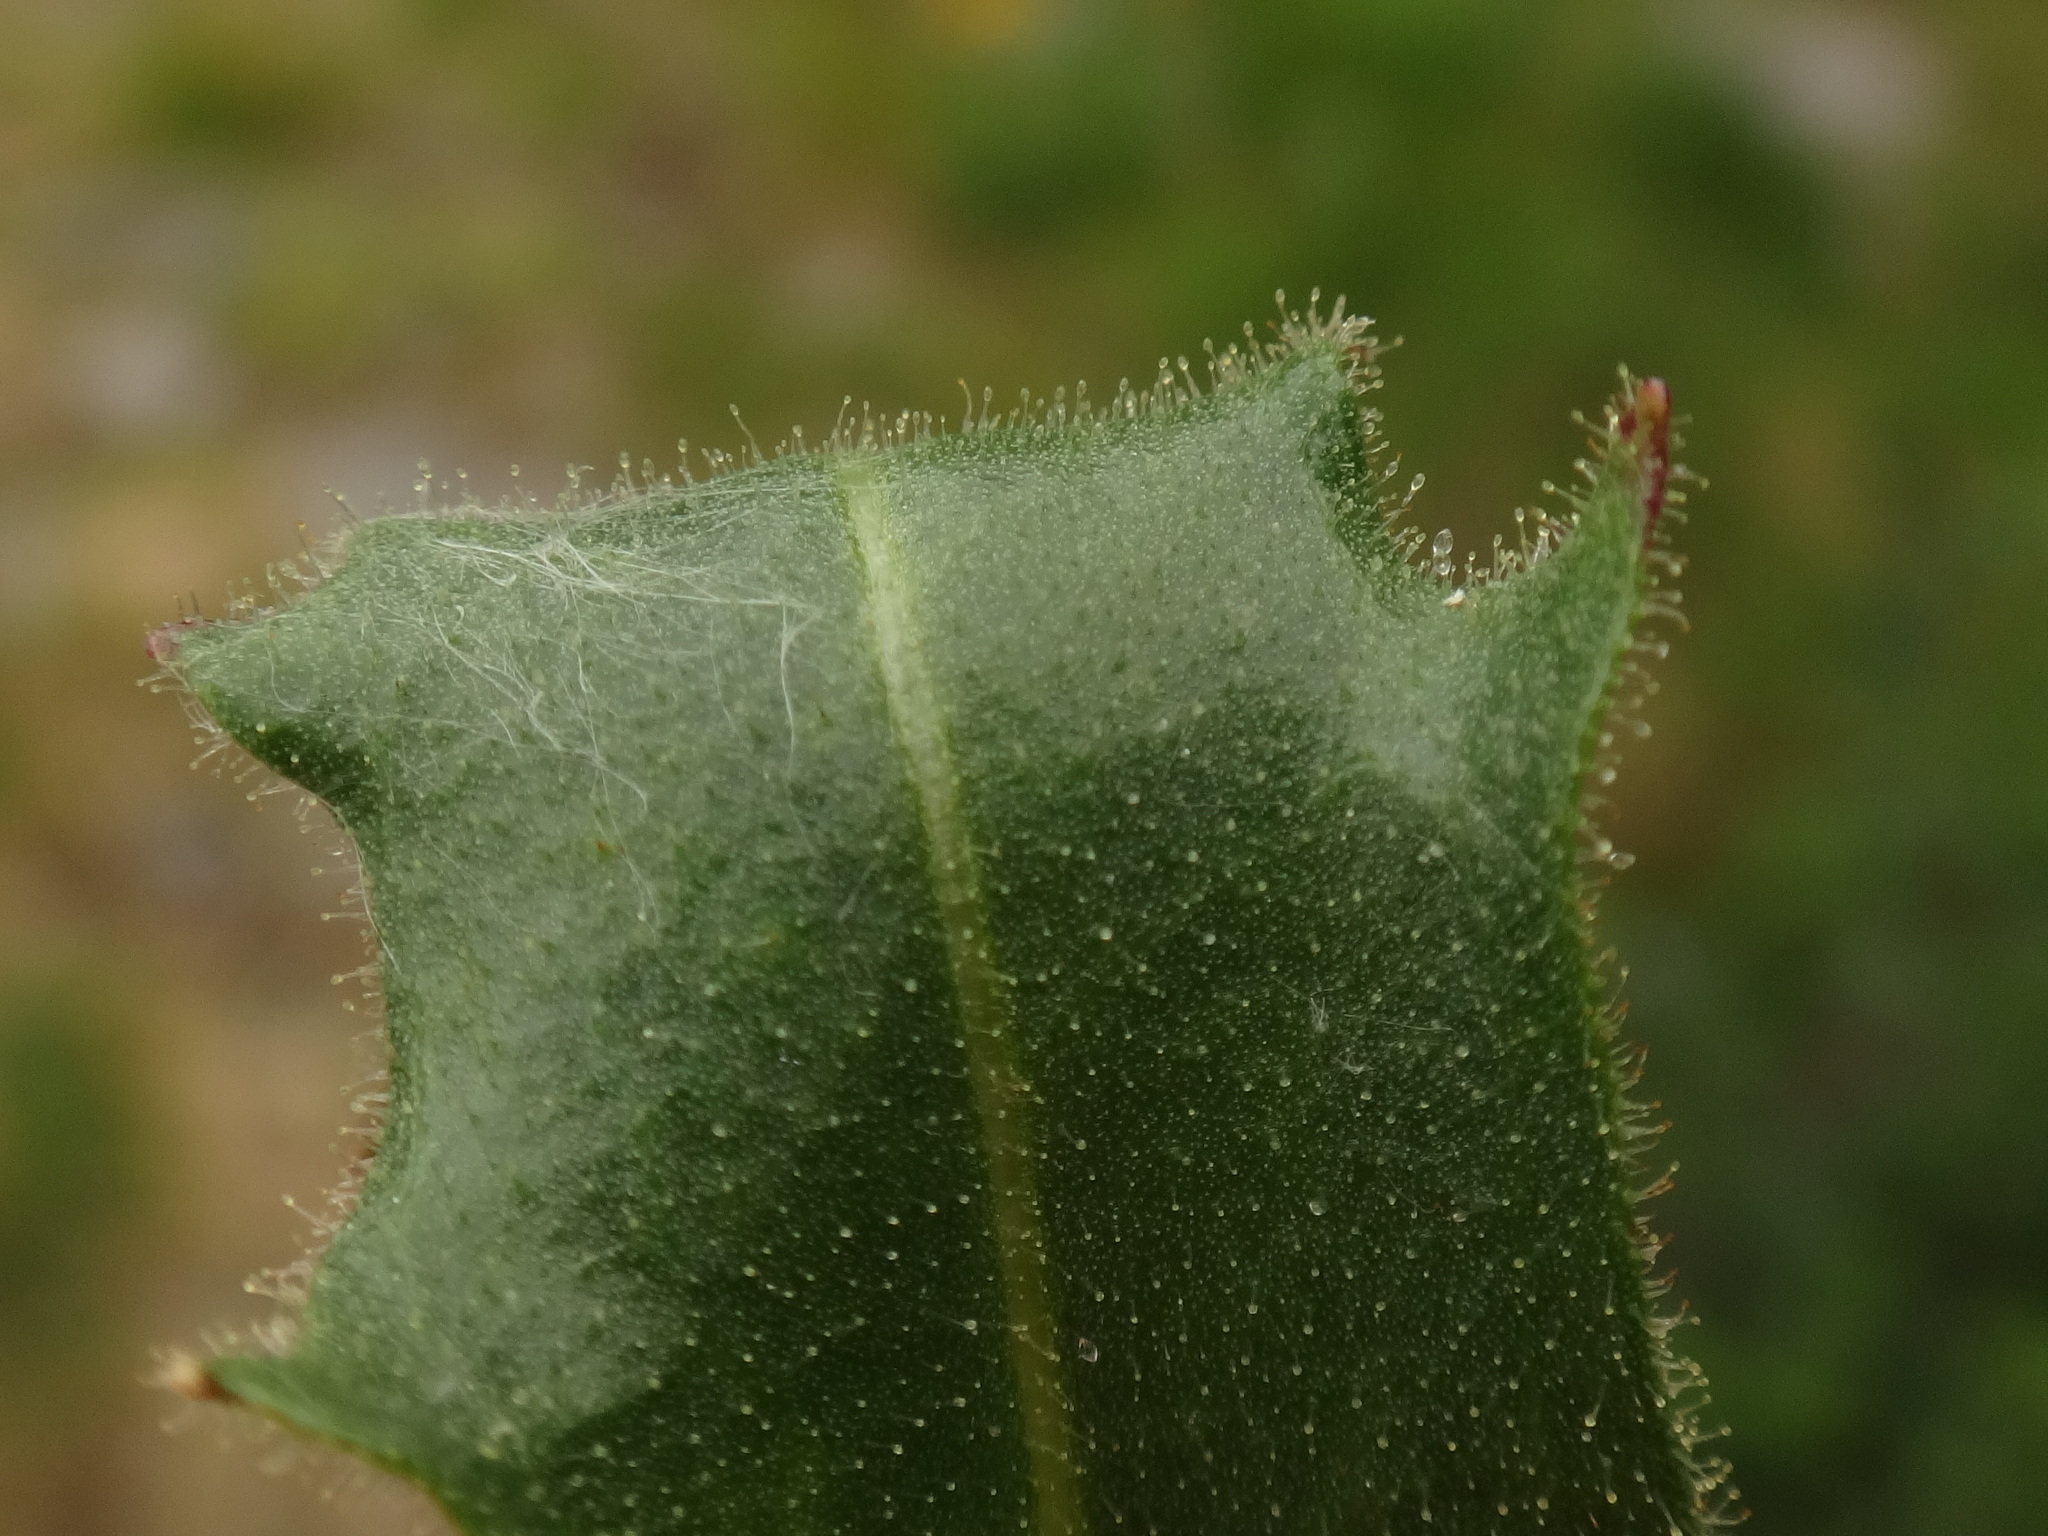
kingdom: Plantae
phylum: Tracheophyta
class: Magnoliopsida
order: Asterales
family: Asteraceae
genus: Schlagintweitia
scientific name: Schlagintweitia intybacea
